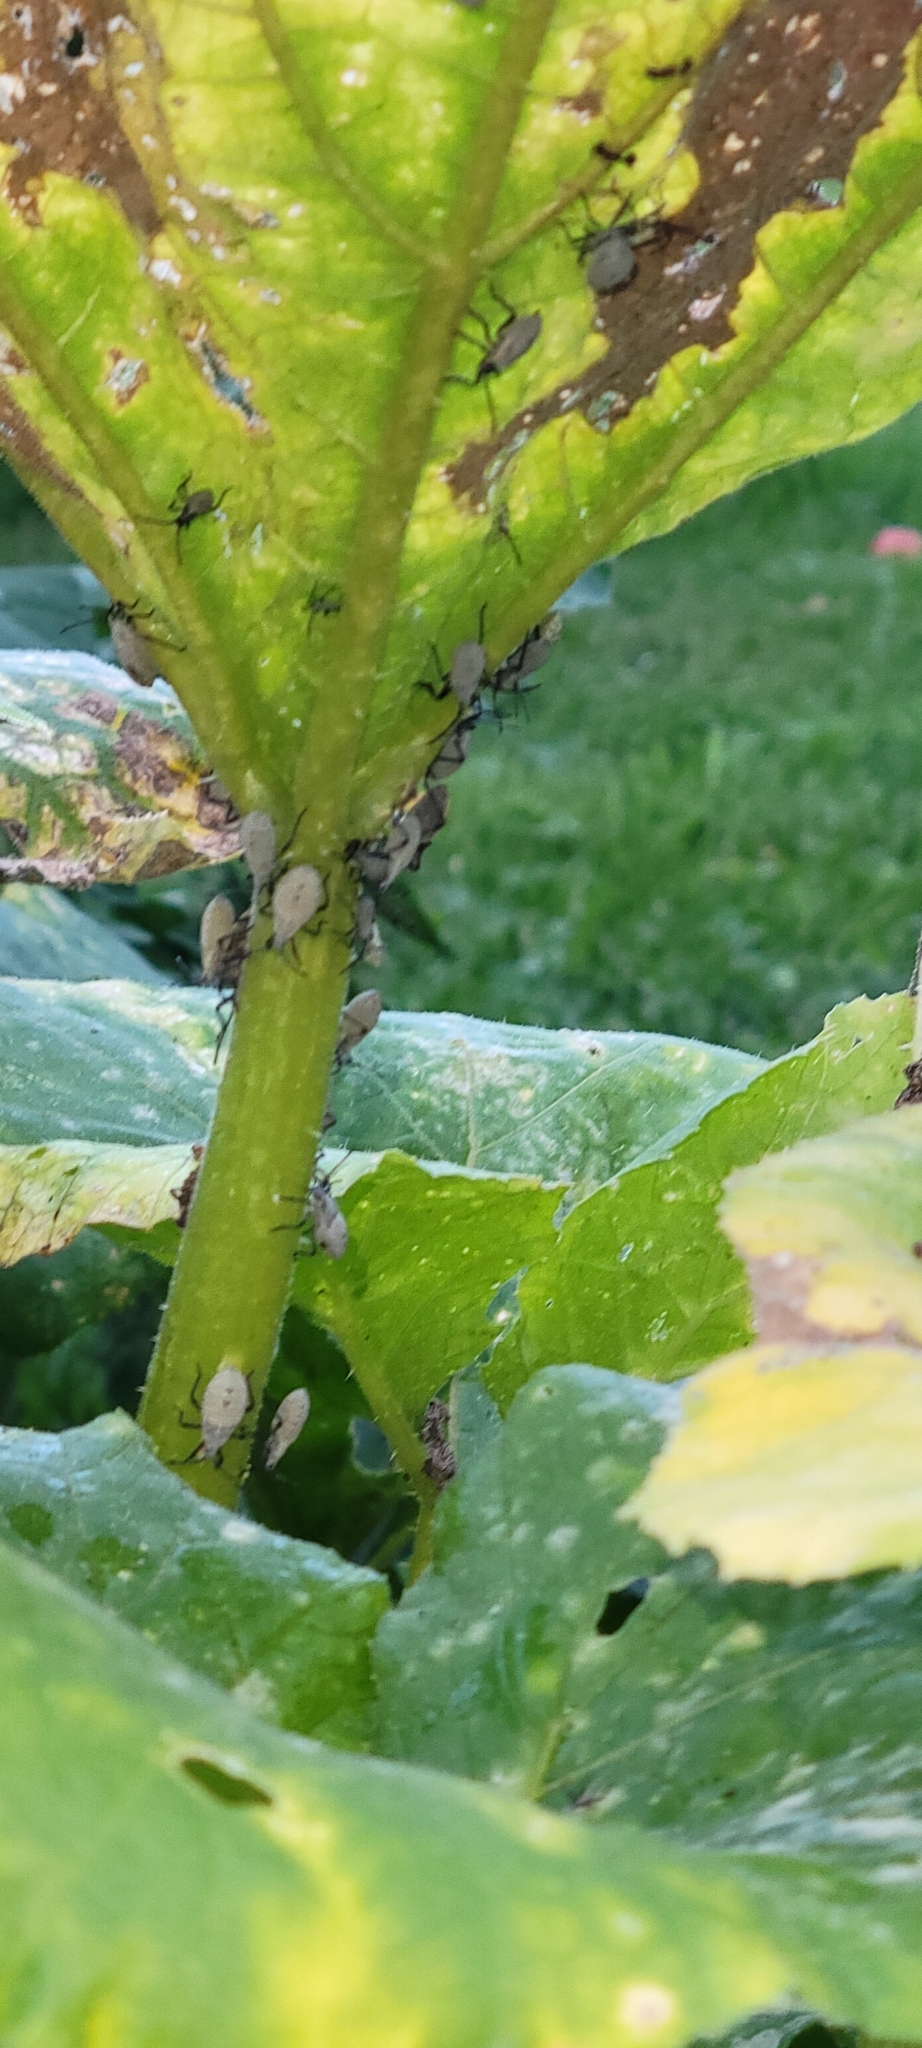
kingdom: Animalia
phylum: Arthropoda
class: Insecta
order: Hemiptera
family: Coreidae
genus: Anasa
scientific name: Anasa tristis
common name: Squash bug
